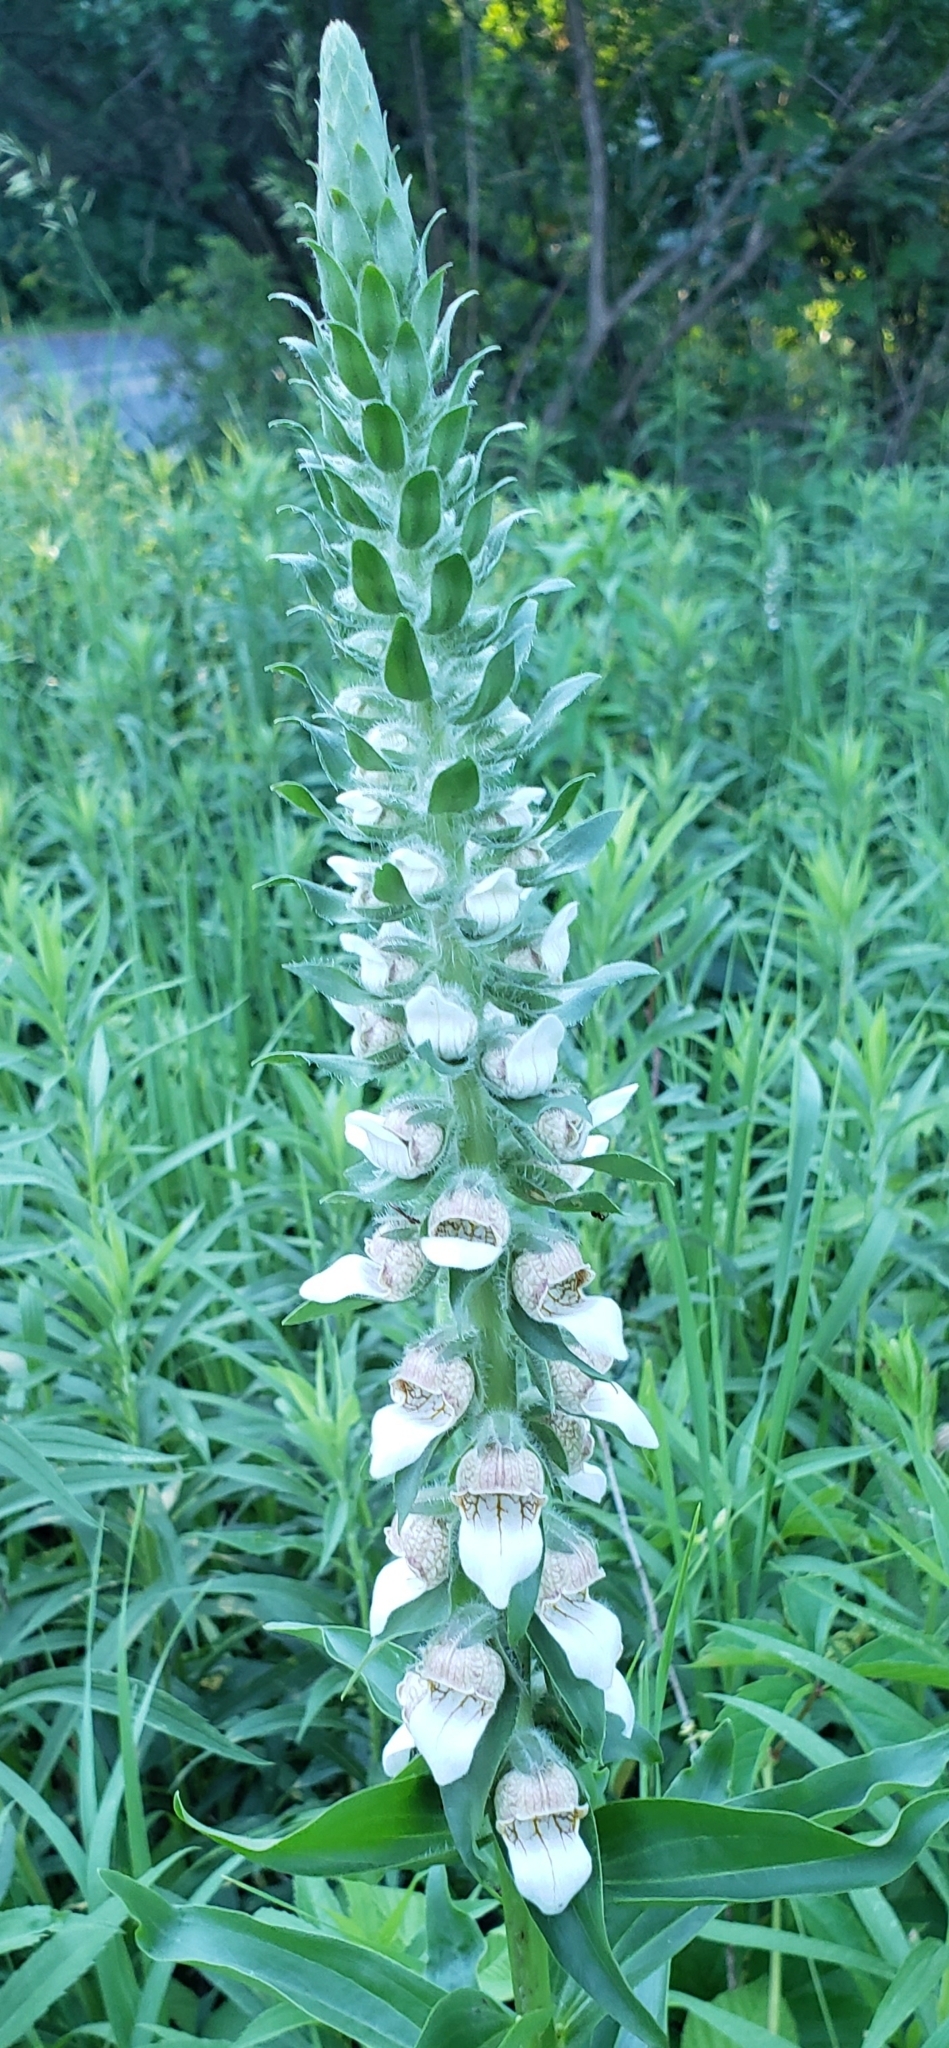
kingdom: Plantae
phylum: Tracheophyta
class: Magnoliopsida
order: Lamiales
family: Plantaginaceae
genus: Digitalis
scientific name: Digitalis lanata
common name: Grecian foxglove
